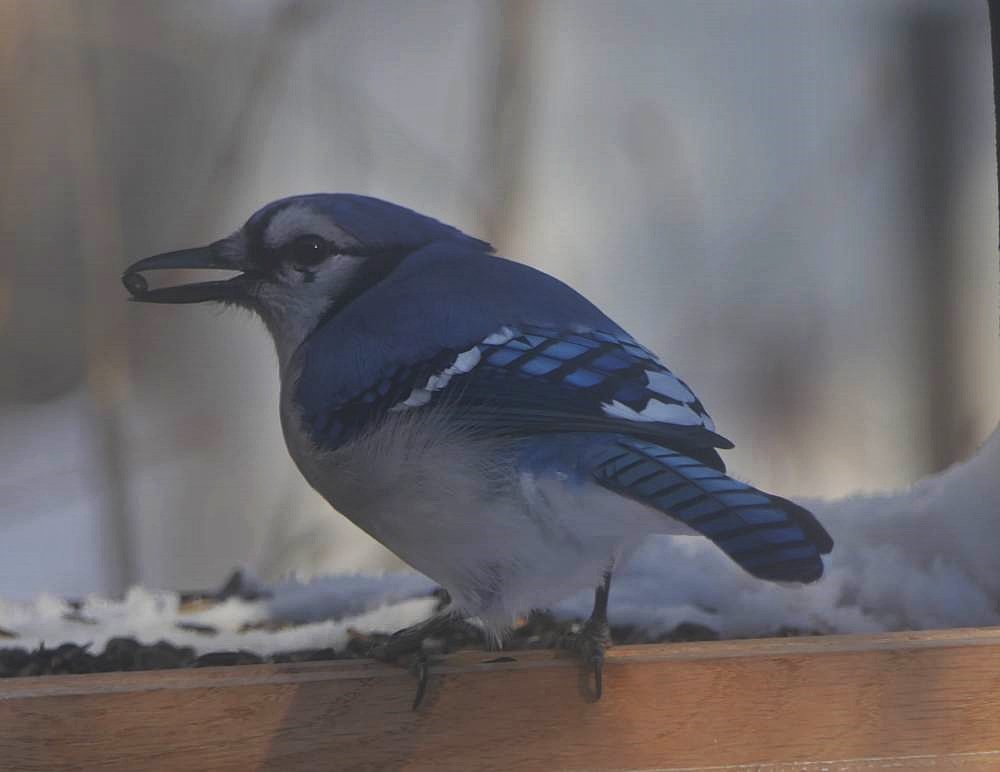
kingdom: Animalia
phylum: Chordata
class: Aves
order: Passeriformes
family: Corvidae
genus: Cyanocitta
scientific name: Cyanocitta cristata
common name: Blue jay
